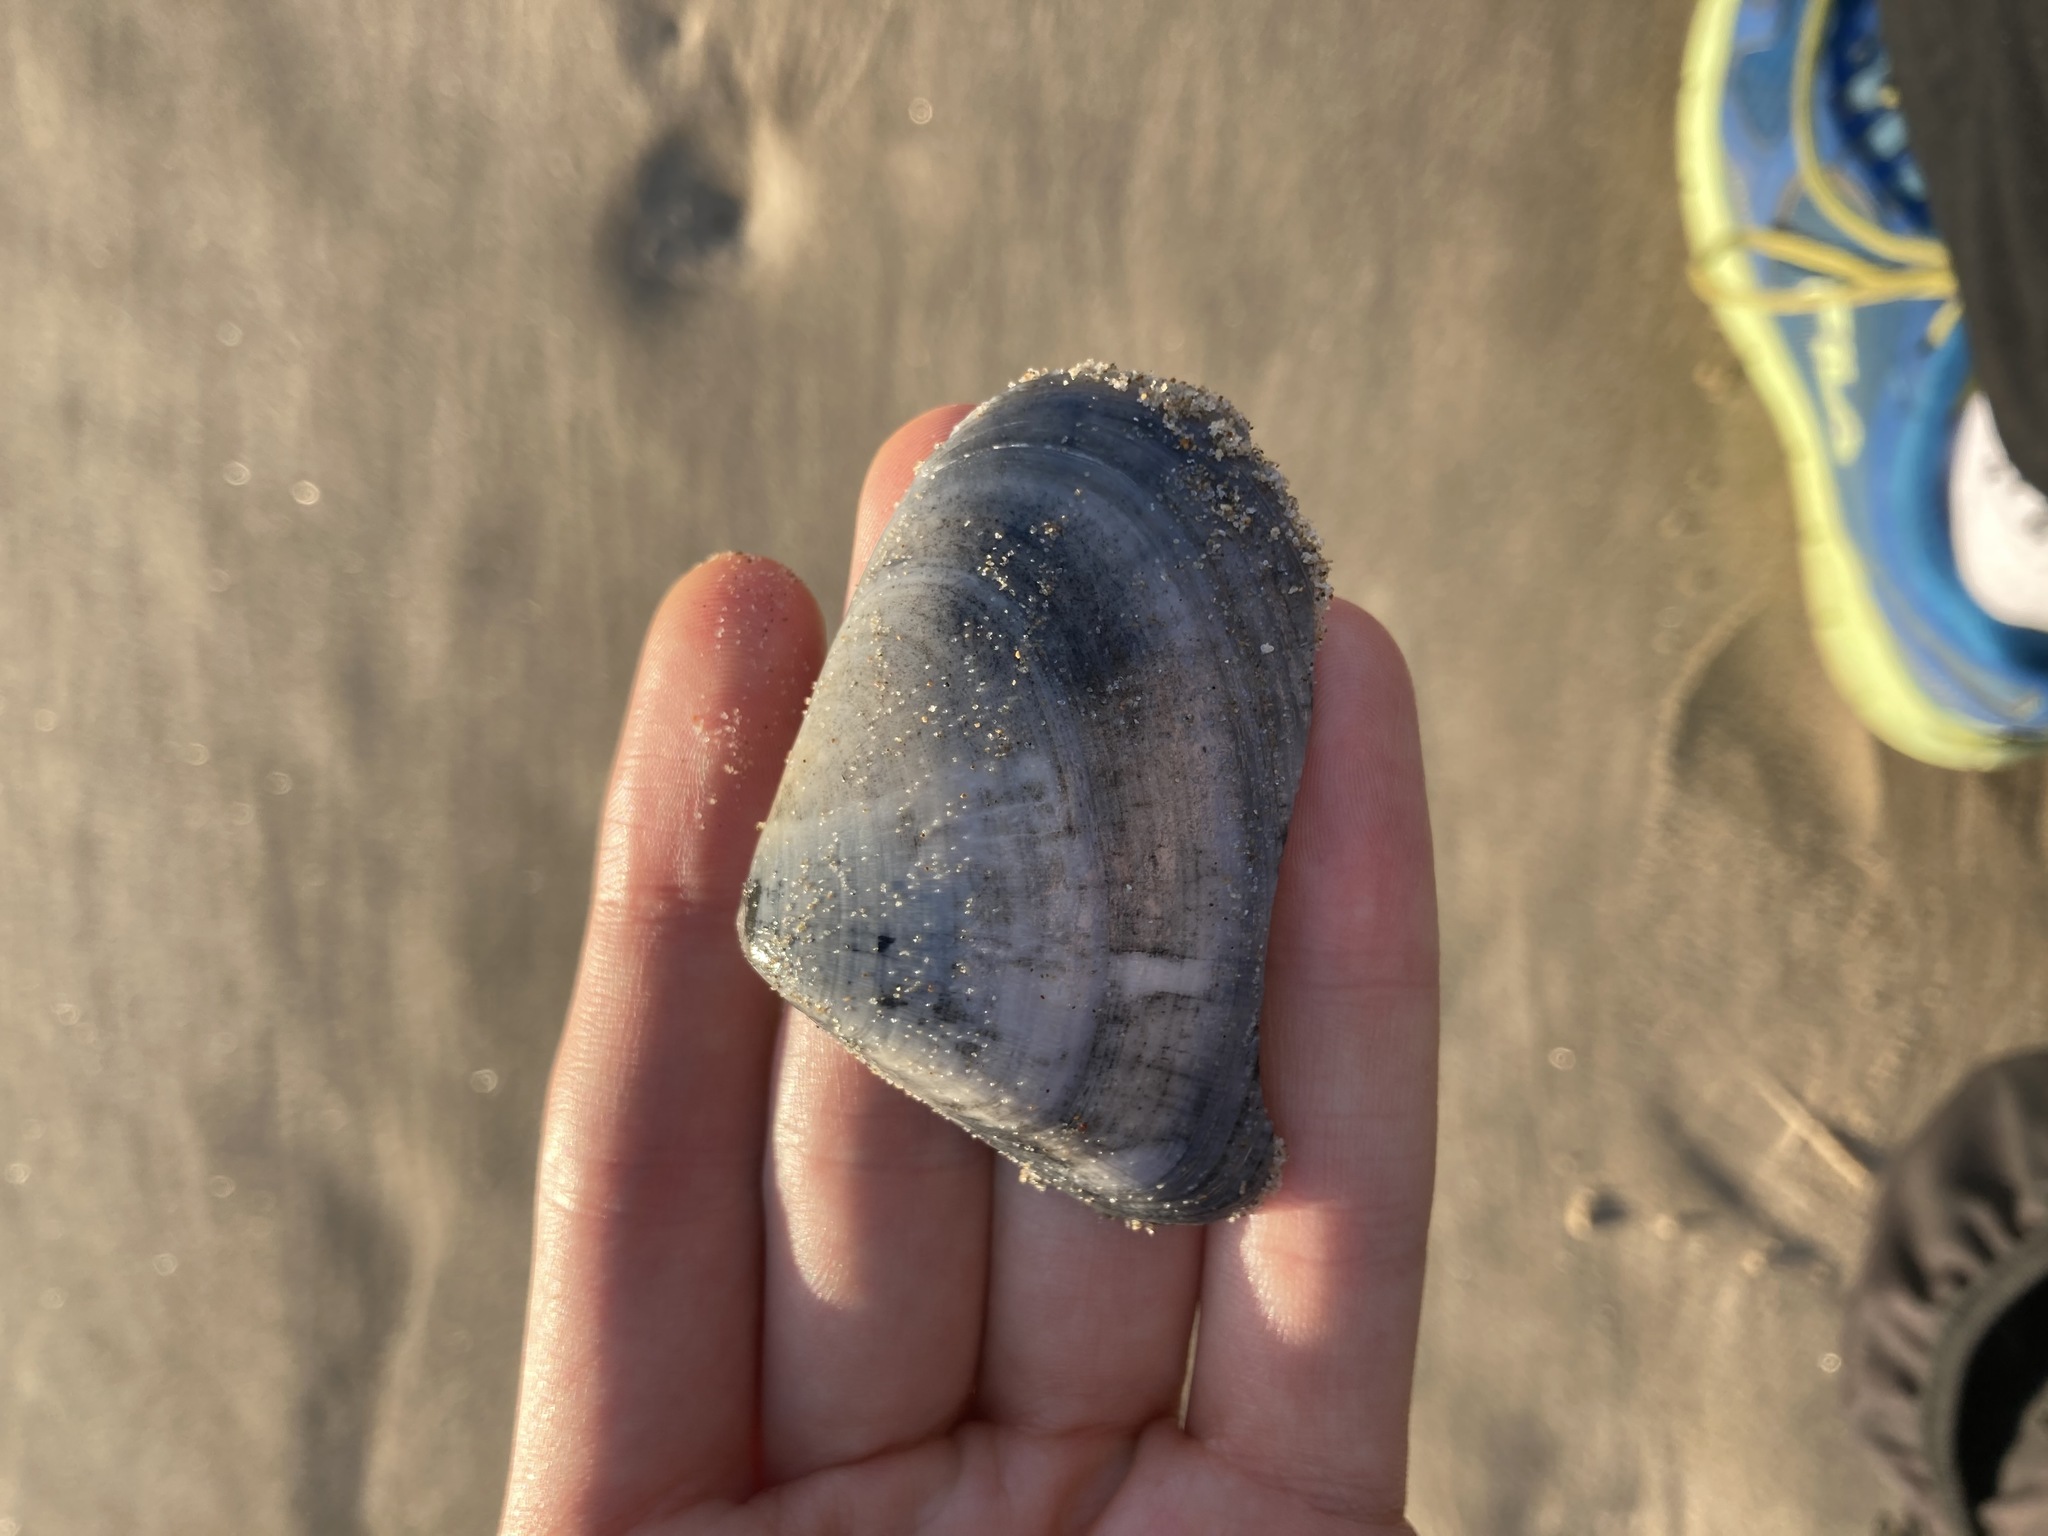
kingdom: Animalia
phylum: Mollusca
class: Bivalvia
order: Cardiida
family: Donacidae
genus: Latona
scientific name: Latona deltoides
